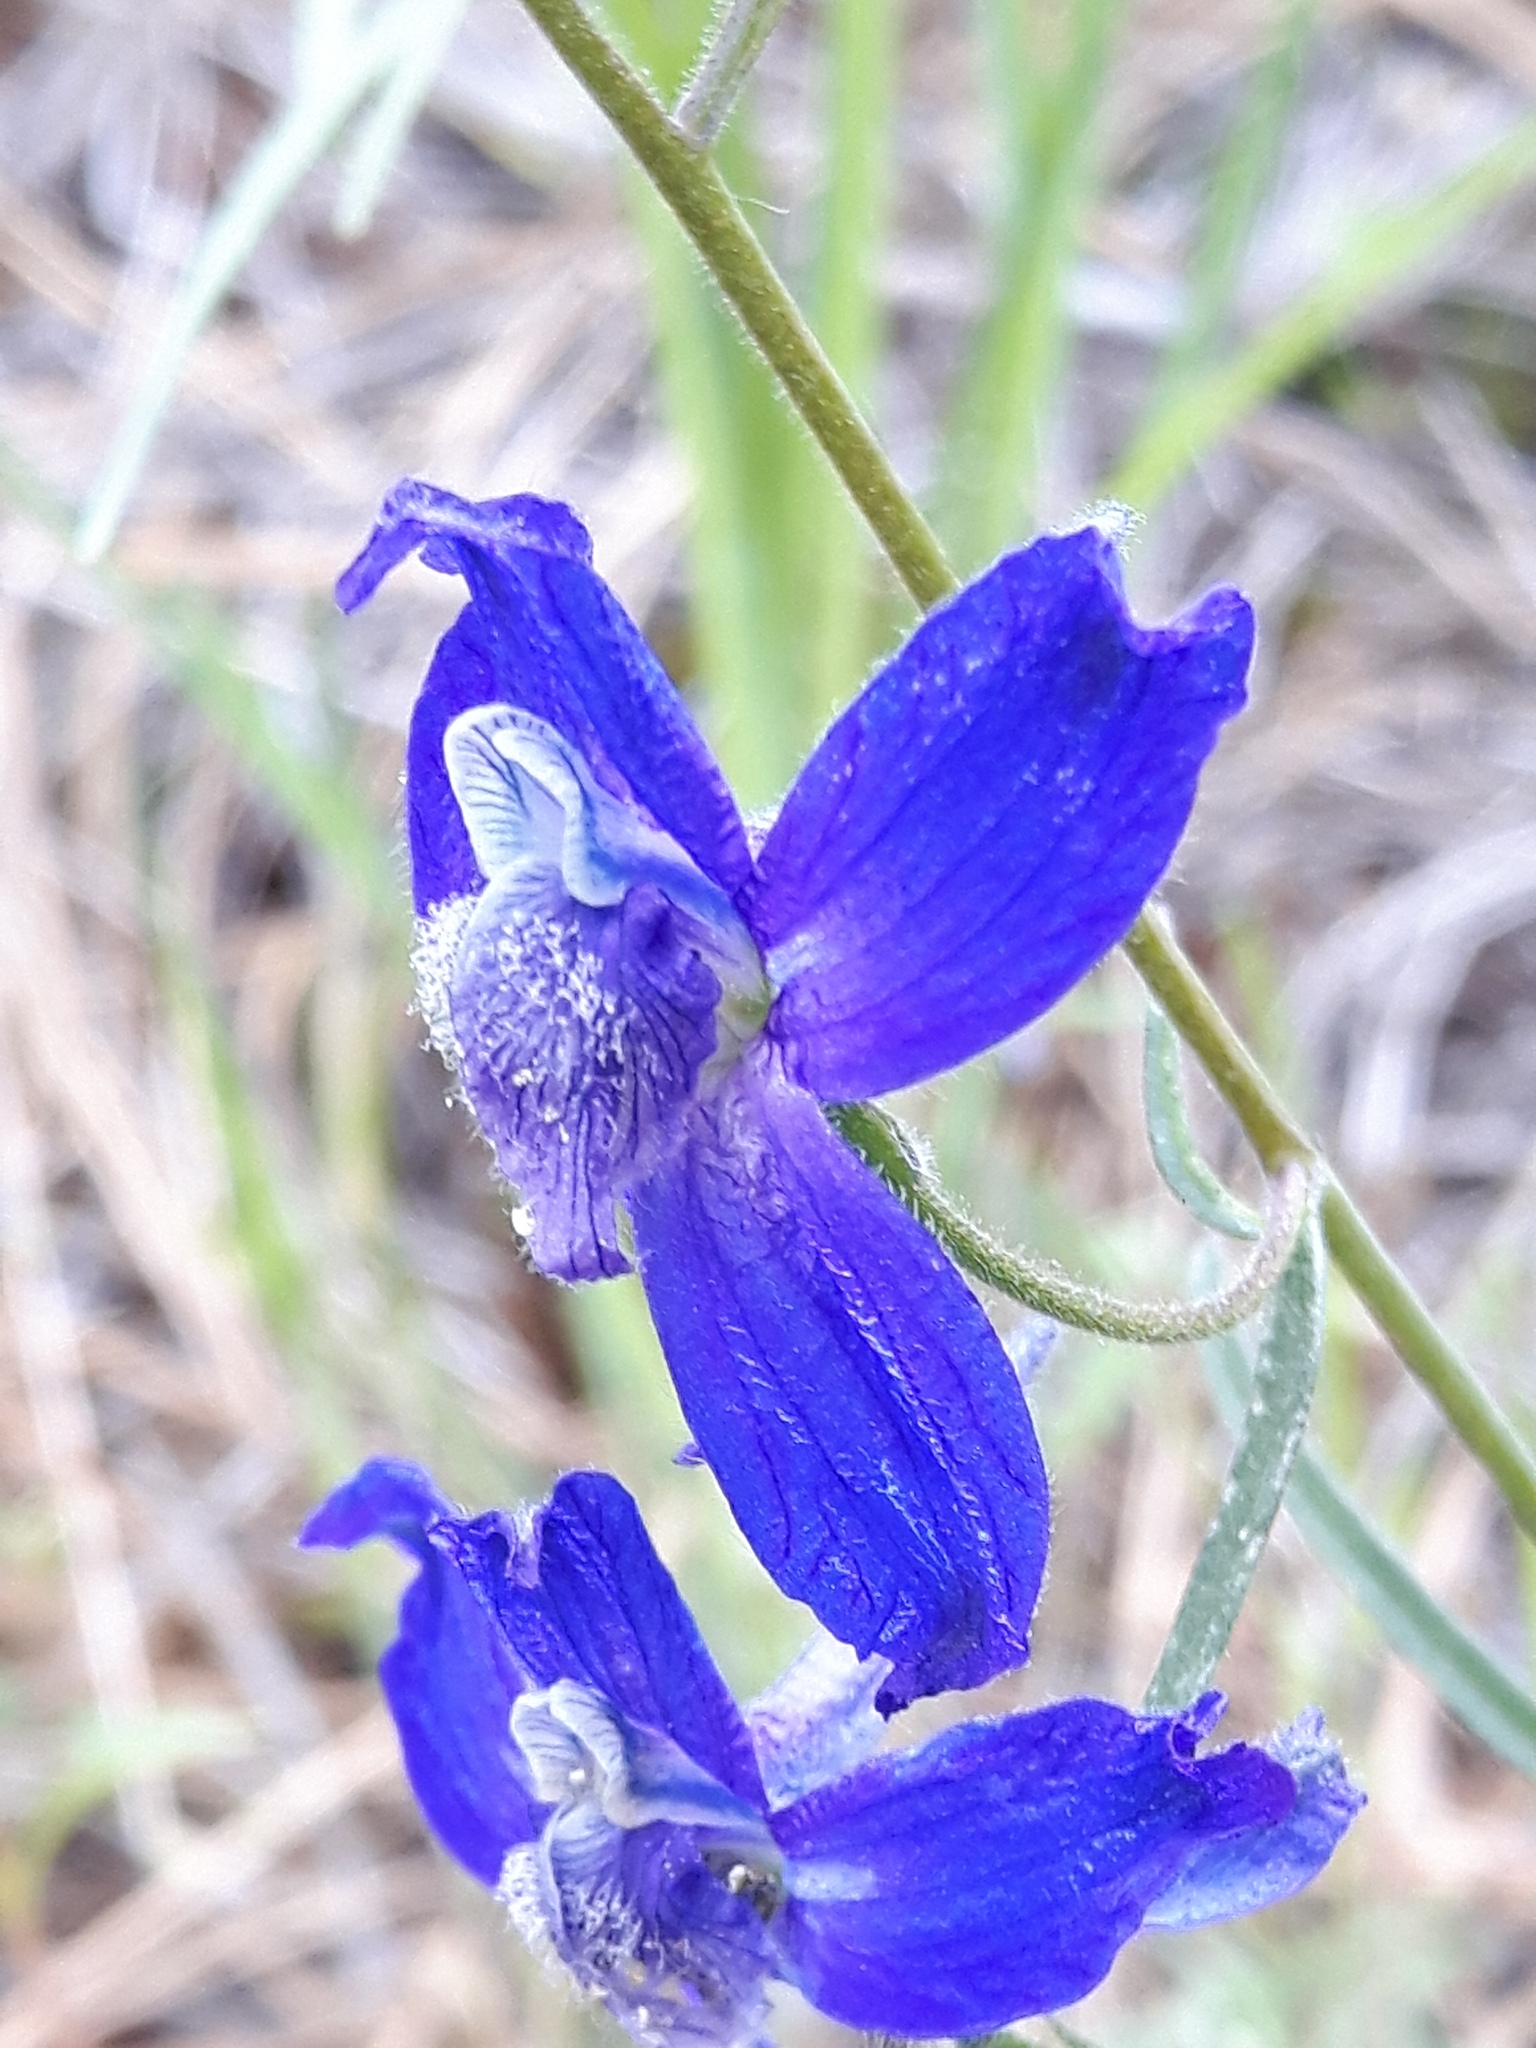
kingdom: Plantae
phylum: Tracheophyta
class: Magnoliopsida
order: Ranunculales
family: Ranunculaceae
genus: Delphinium
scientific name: Delphinium nuttallianum
